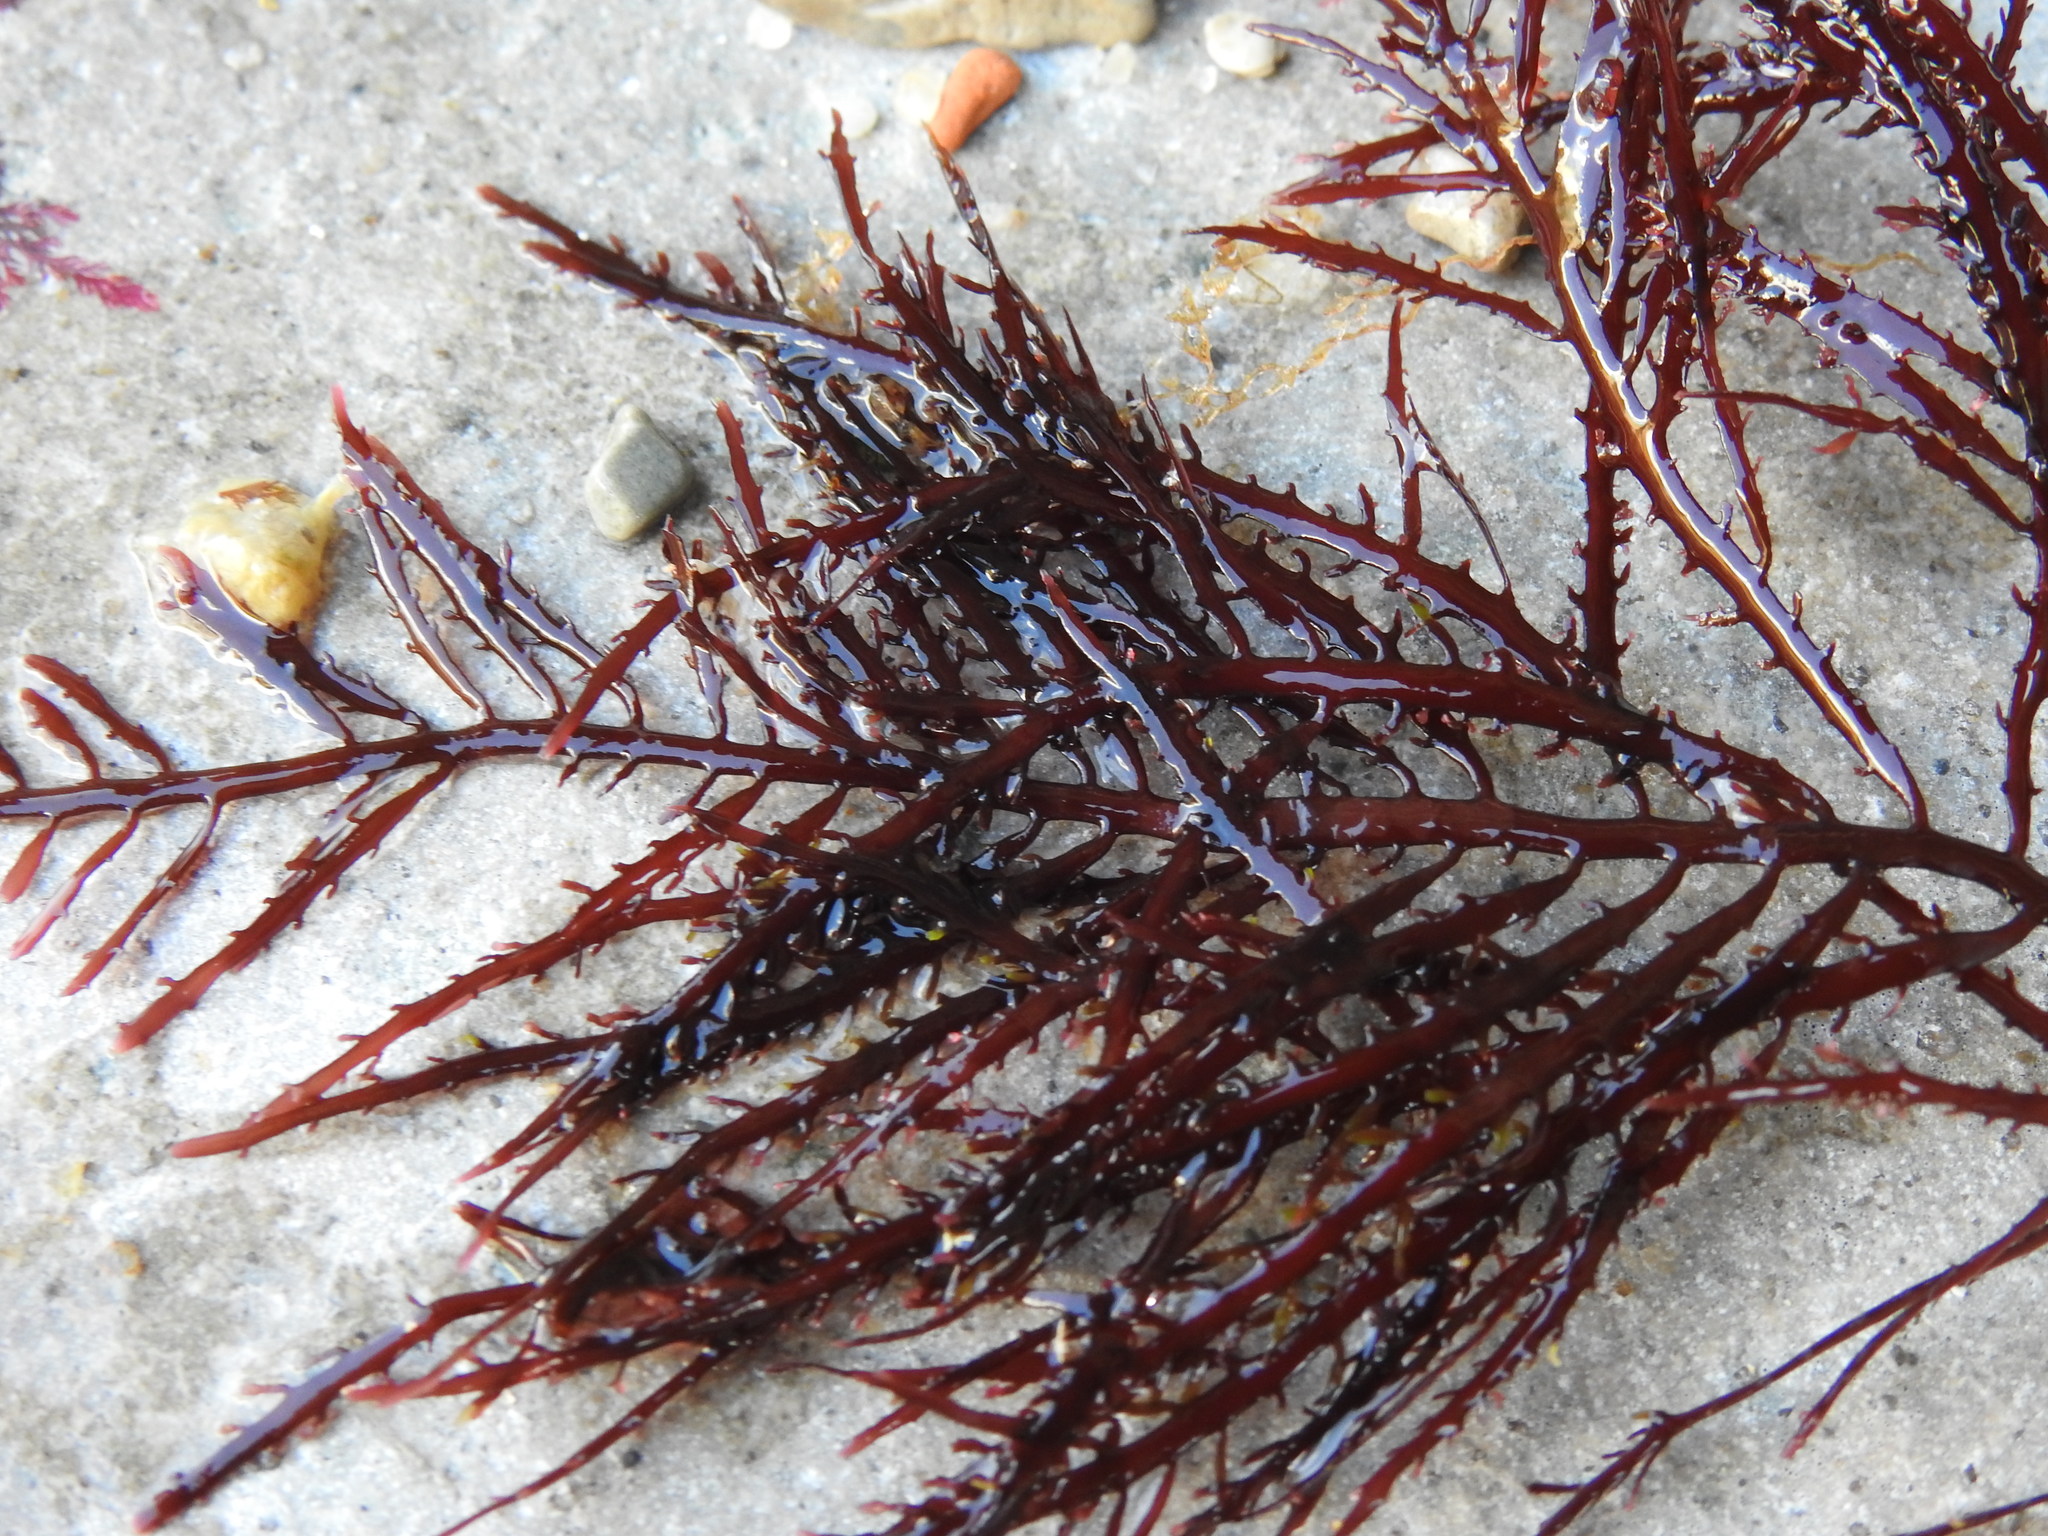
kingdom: Plantae
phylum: Rhodophyta
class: Florideophyceae
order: Gelidiales
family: Gelidiaceae
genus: Gelidium
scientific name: Gelidium spinosum
